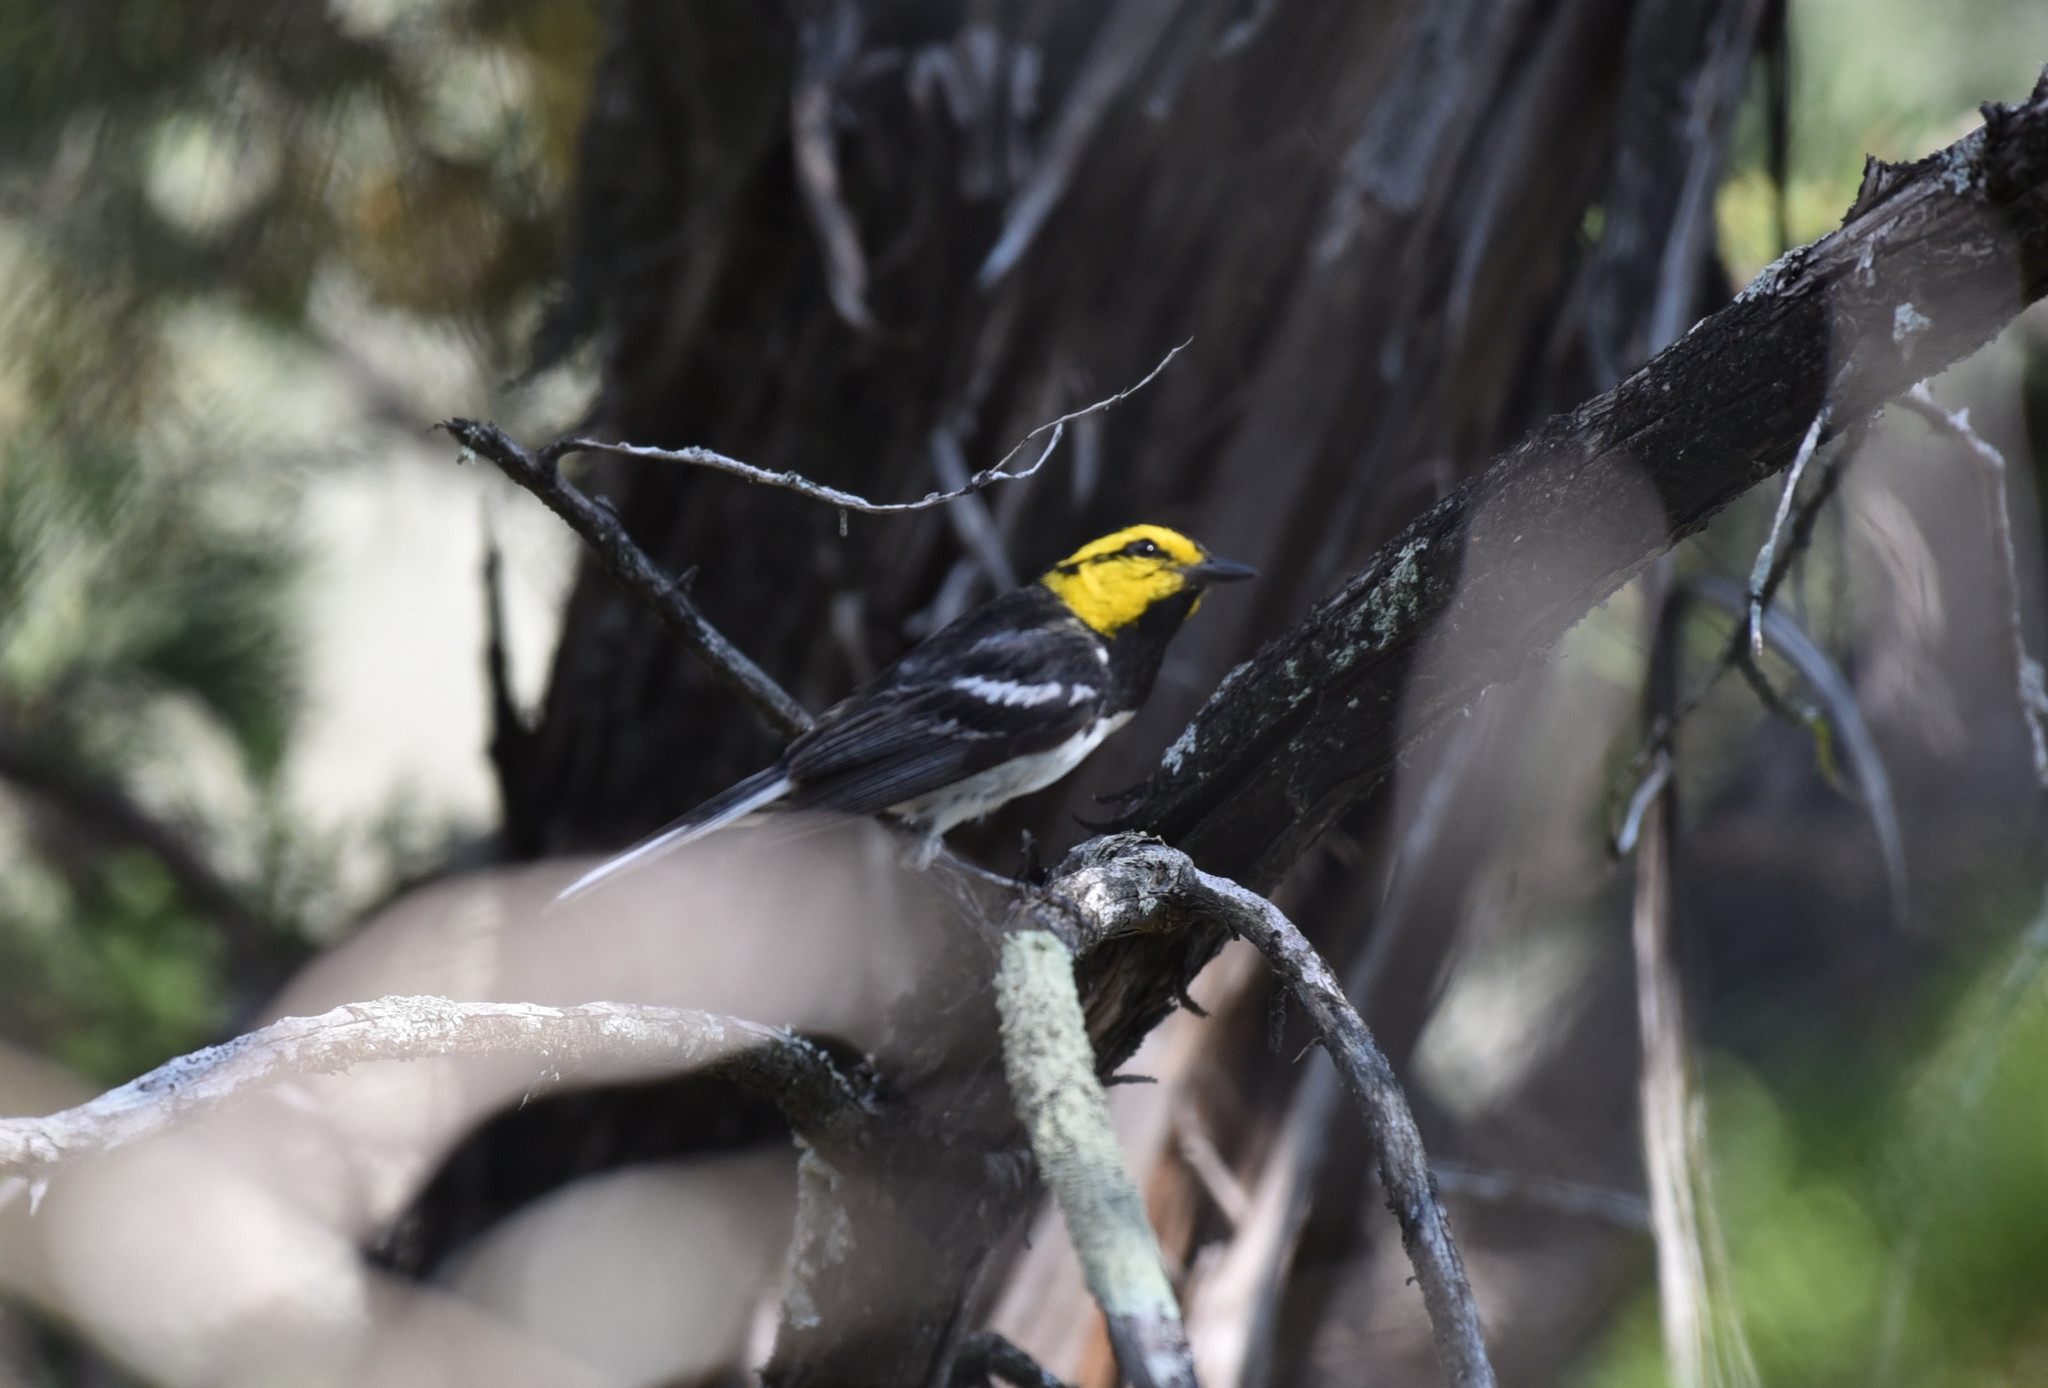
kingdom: Animalia
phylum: Chordata
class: Aves
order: Passeriformes
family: Parulidae
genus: Setophaga
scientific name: Setophaga chrysoparia
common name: Golden-cheeked warbler
